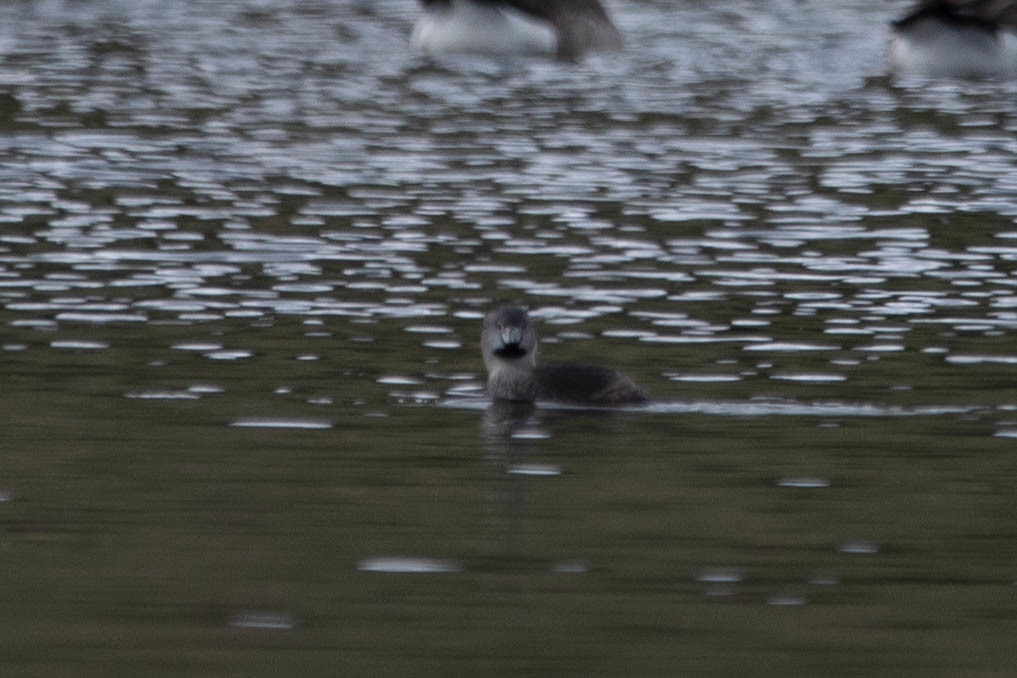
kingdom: Animalia
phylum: Chordata
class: Aves
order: Podicipediformes
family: Podicipedidae
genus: Podilymbus
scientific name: Podilymbus podiceps
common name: Pied-billed grebe
